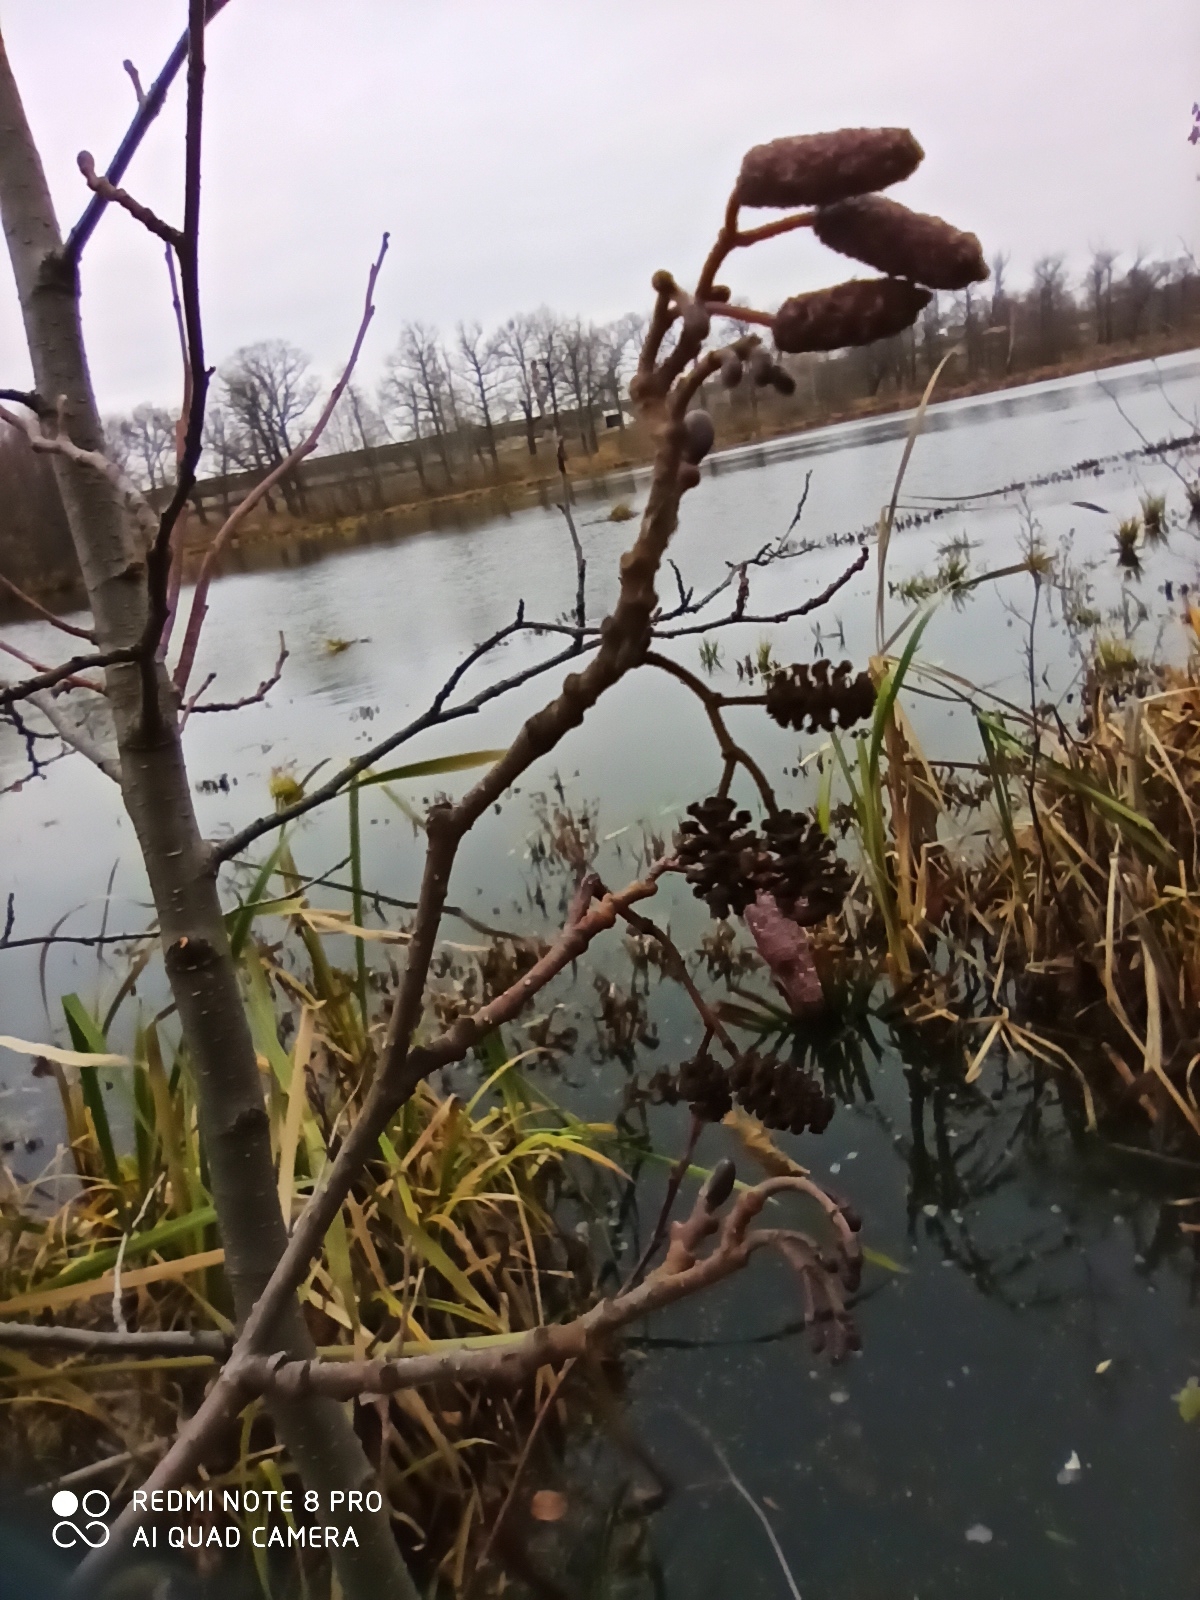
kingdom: Plantae
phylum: Tracheophyta
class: Magnoliopsida
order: Fagales
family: Betulaceae
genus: Alnus
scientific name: Alnus glutinosa
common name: Black alder
